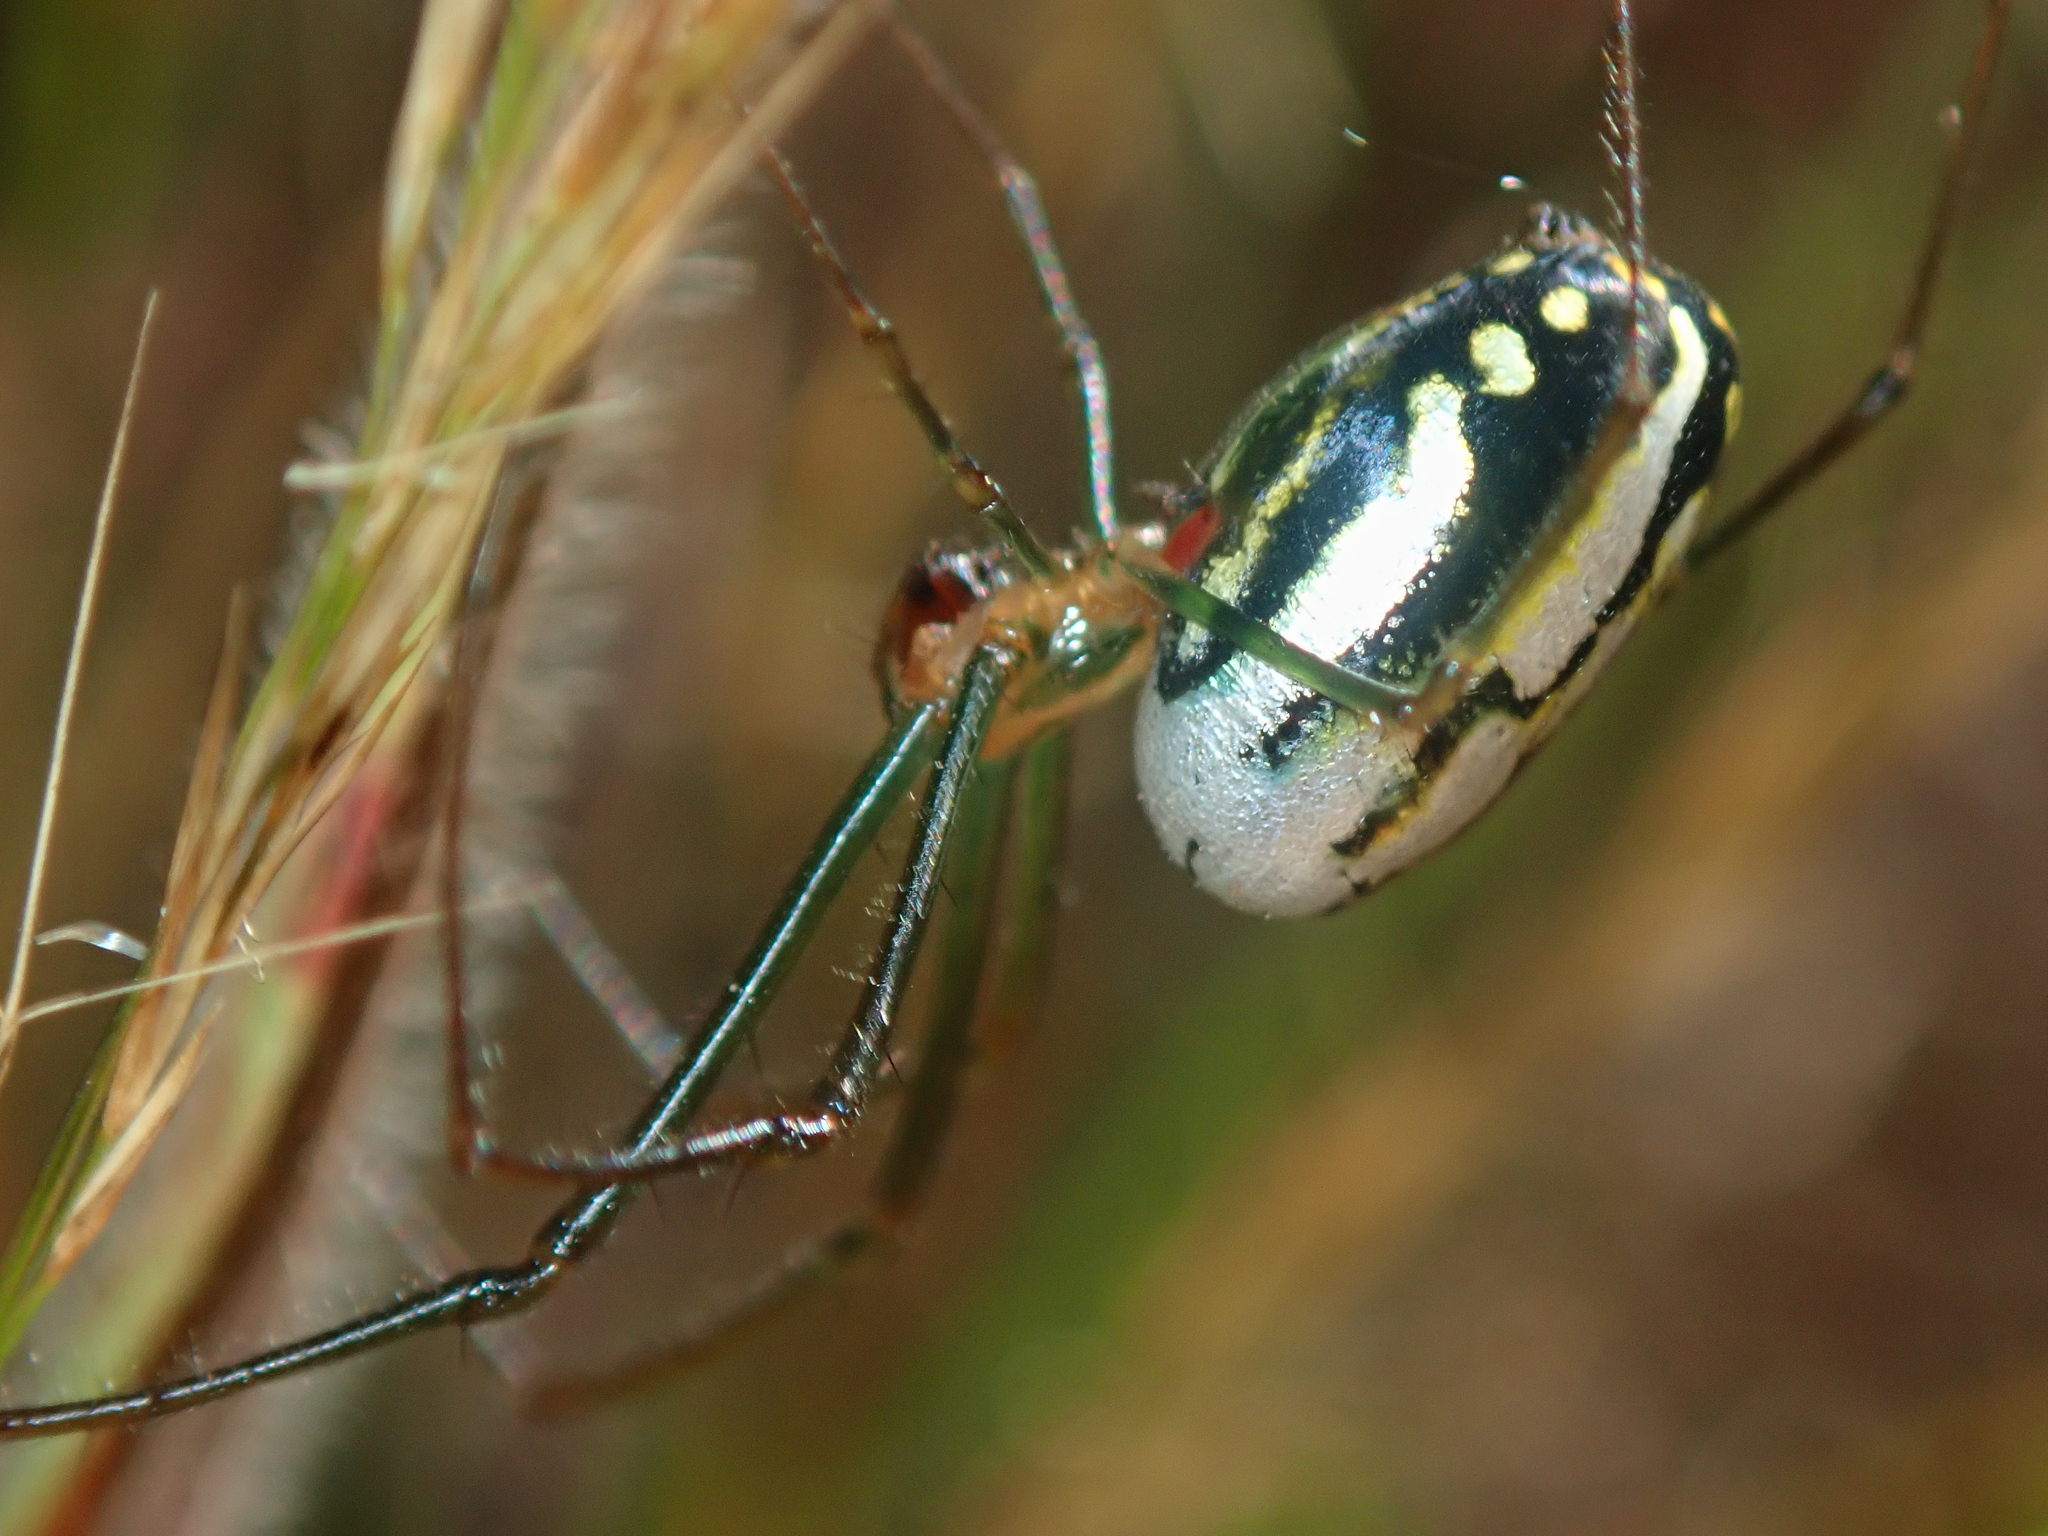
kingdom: Animalia
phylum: Arthropoda
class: Arachnida
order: Araneae
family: Tetragnathidae
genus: Leucauge
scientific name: Leucauge argyra
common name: Longjawed orb weavers
